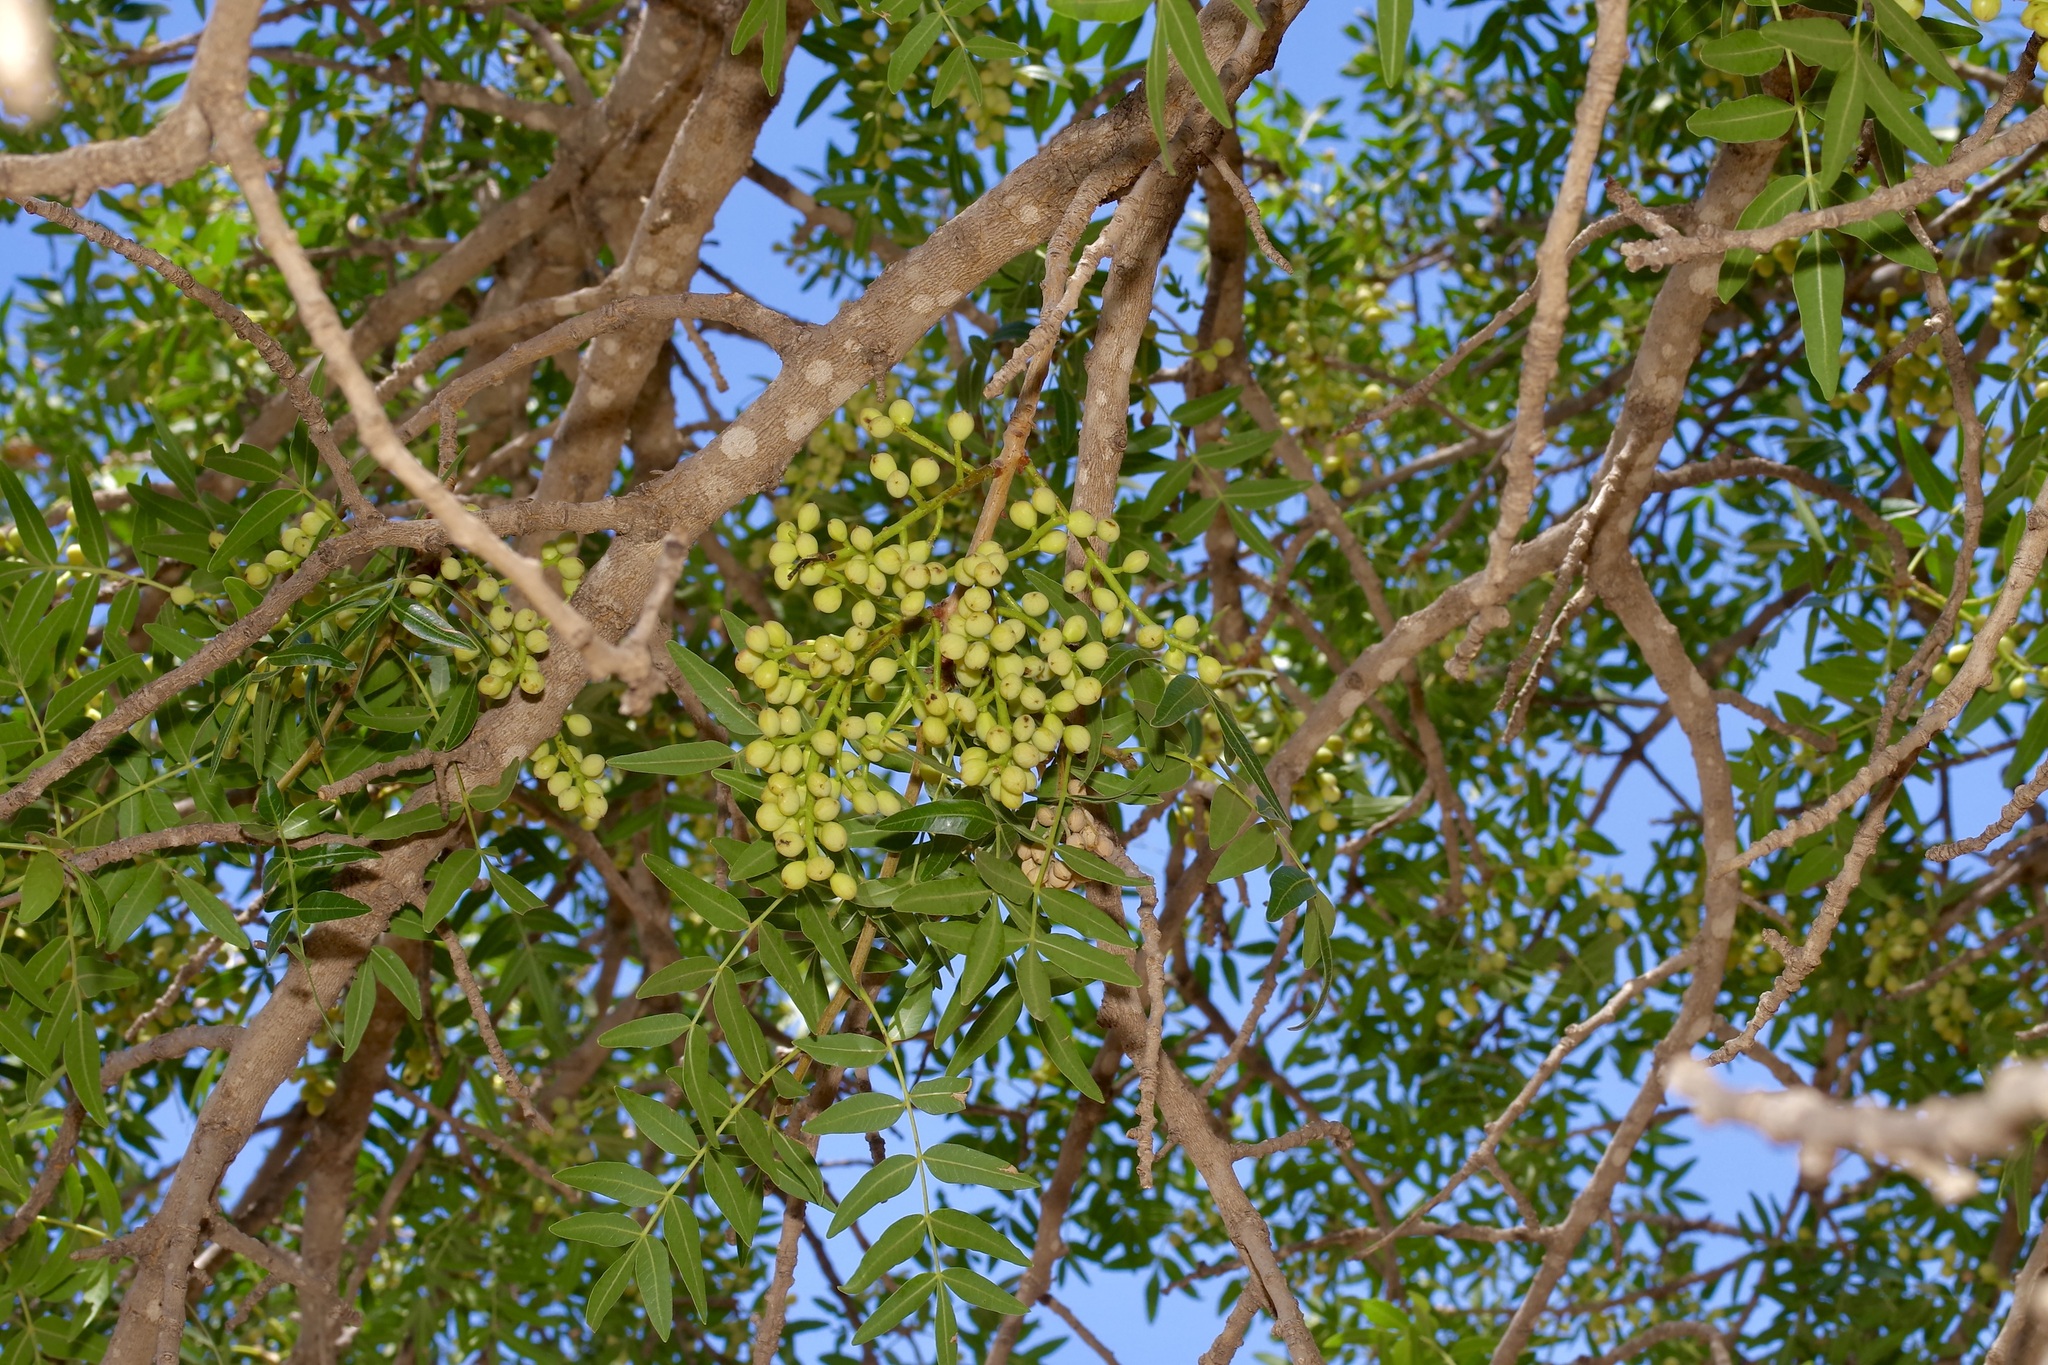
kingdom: Plantae
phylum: Tracheophyta
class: Magnoliopsida
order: Sapindales
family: Sapindaceae
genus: Sapindus
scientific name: Sapindus drummondii
